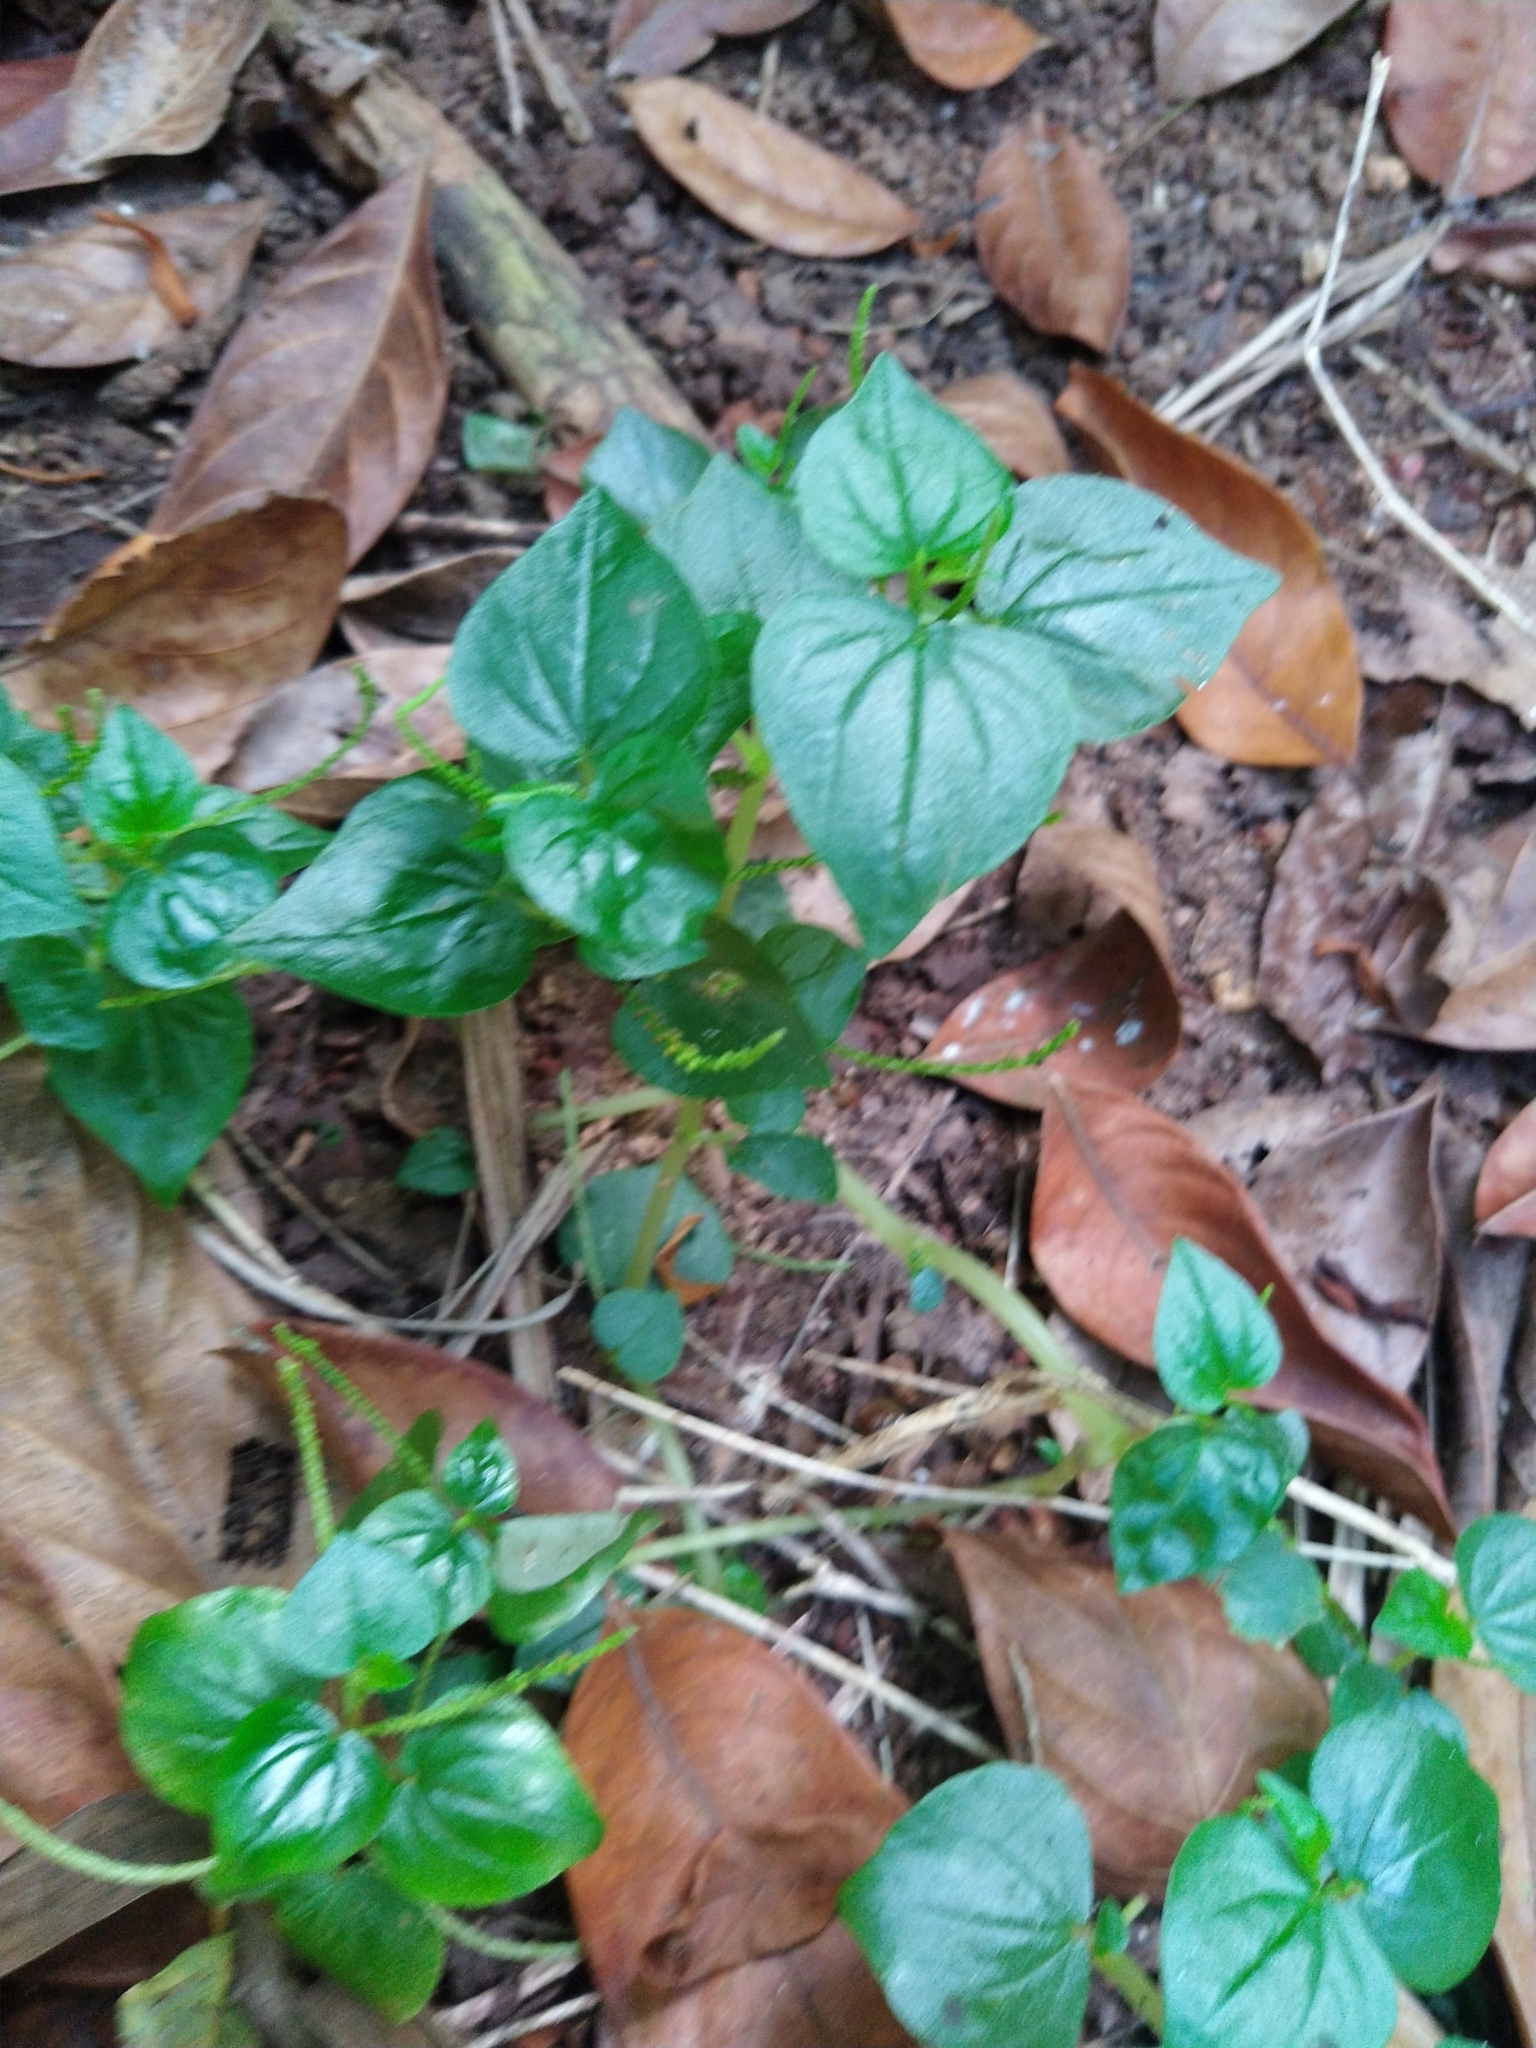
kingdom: Plantae
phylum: Tracheophyta
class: Magnoliopsida
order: Piperales
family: Piperaceae
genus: Peperomia
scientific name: Peperomia pellucida
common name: Man to man
